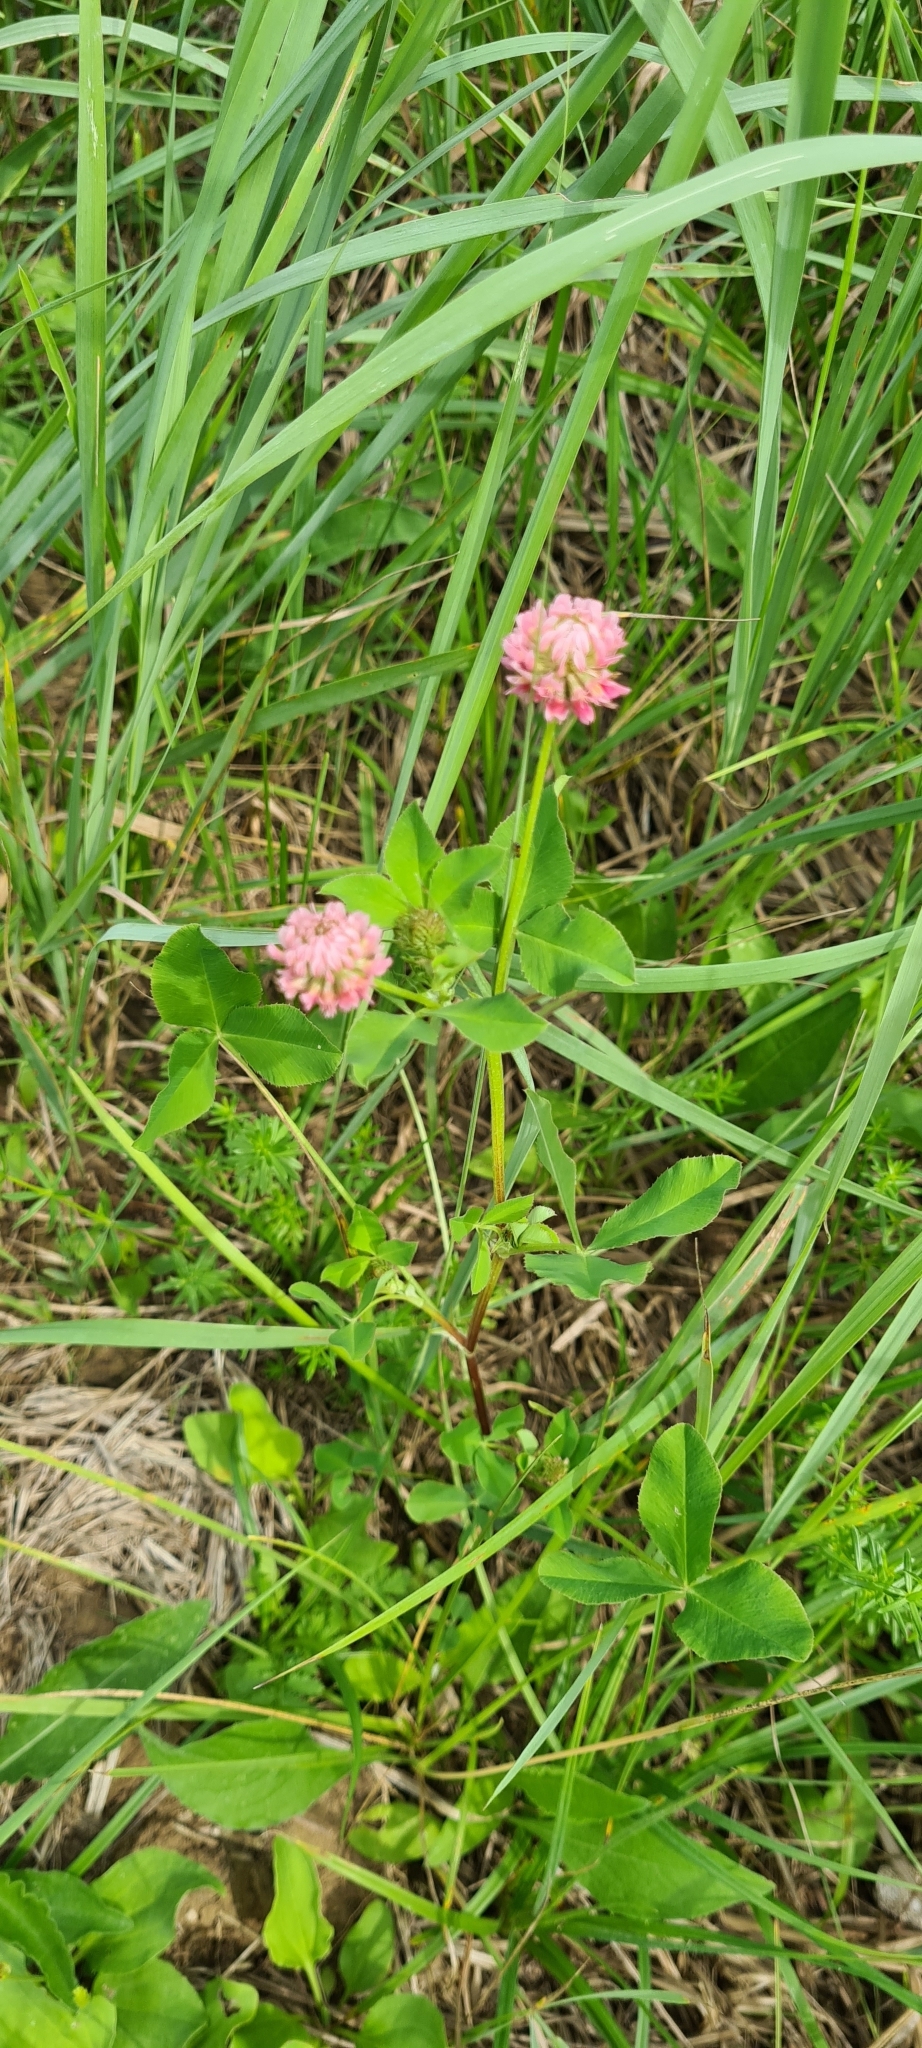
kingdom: Plantae
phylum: Tracheophyta
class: Magnoliopsida
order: Fabales
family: Fabaceae
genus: Trifolium
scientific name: Trifolium hybridum
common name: Alsike clover
